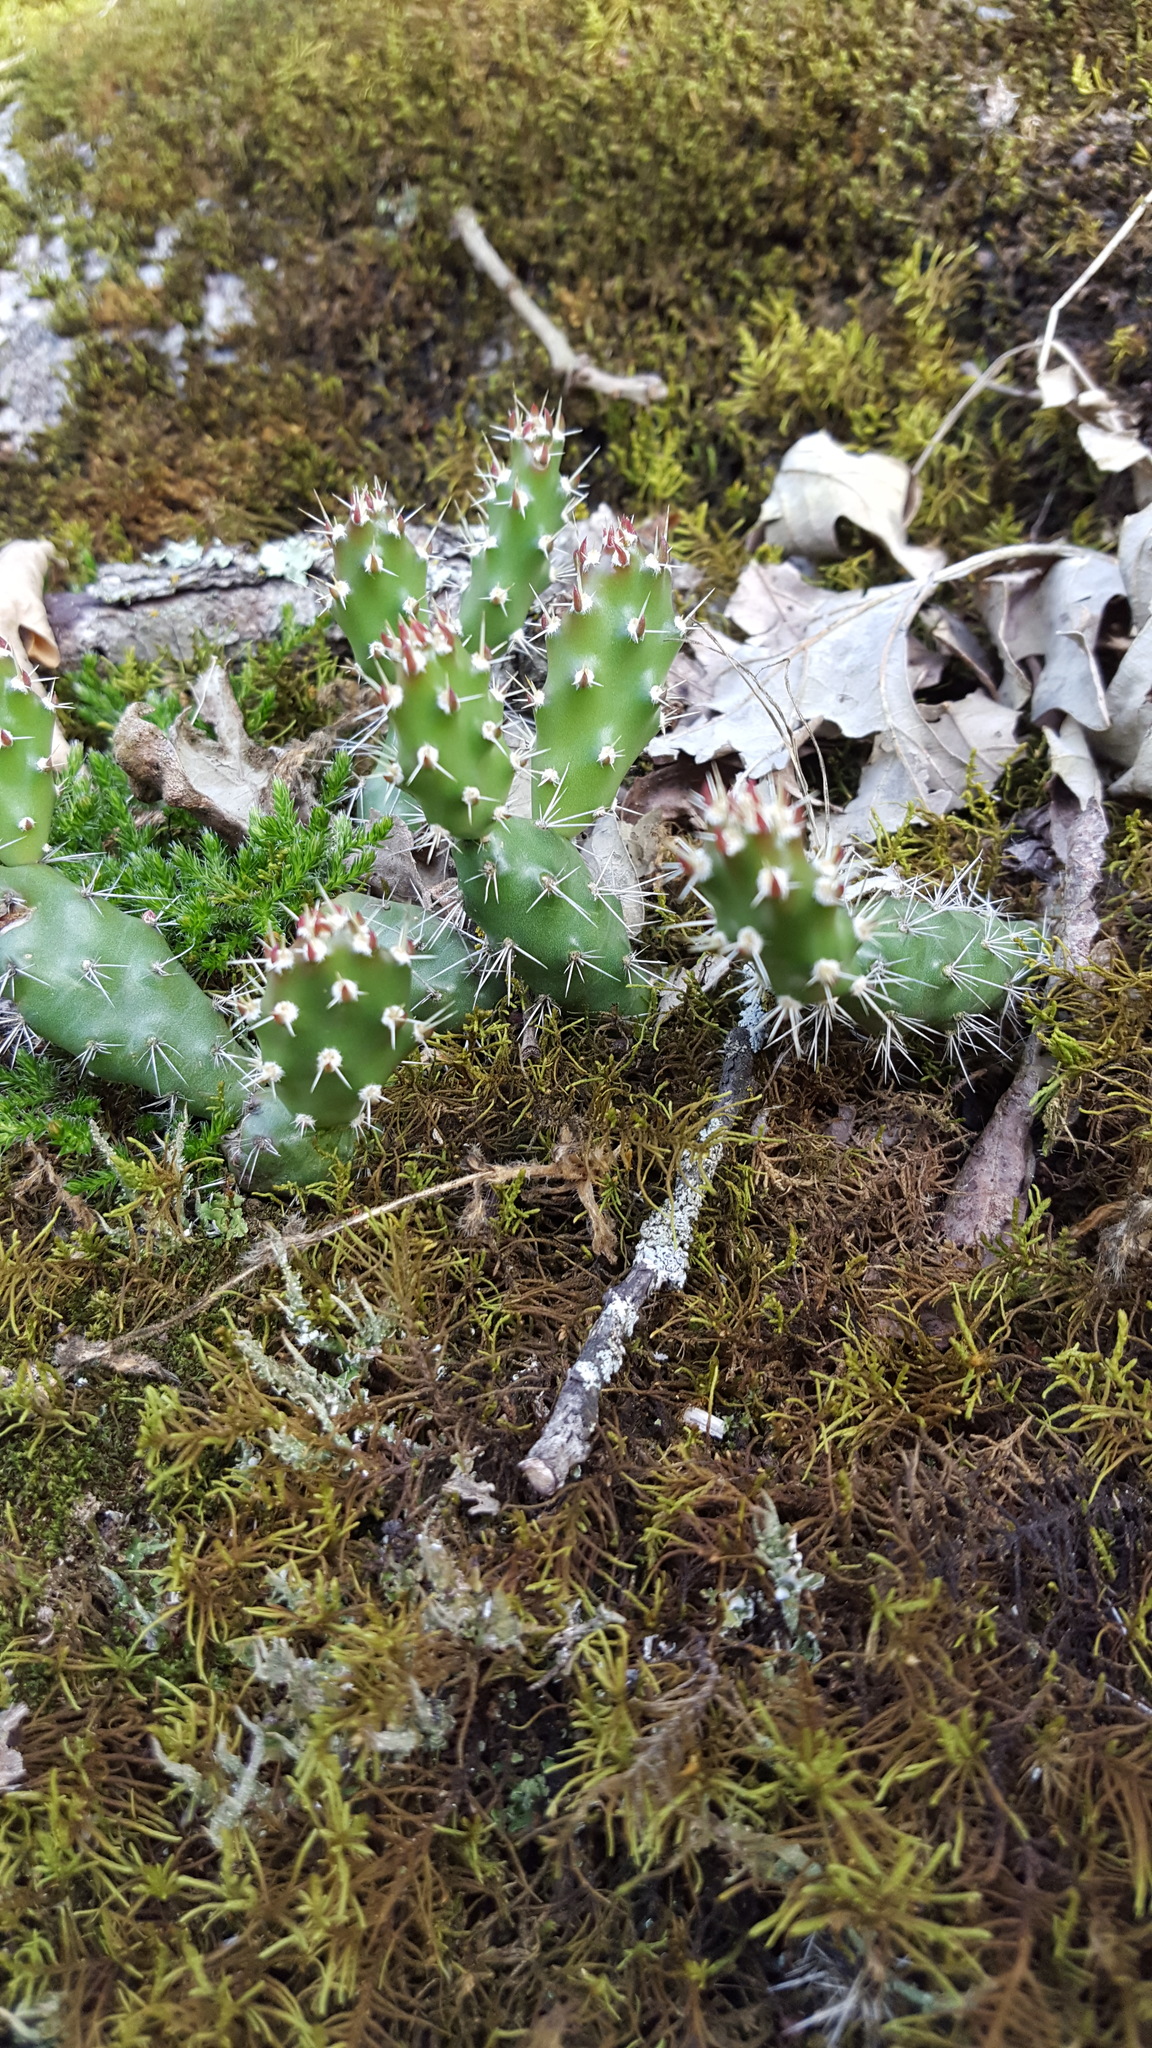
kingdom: Plantae
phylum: Tracheophyta
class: Magnoliopsida
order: Caryophyllales
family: Cactaceae
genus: Opuntia
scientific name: Opuntia fragilis
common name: Brittle cactus
